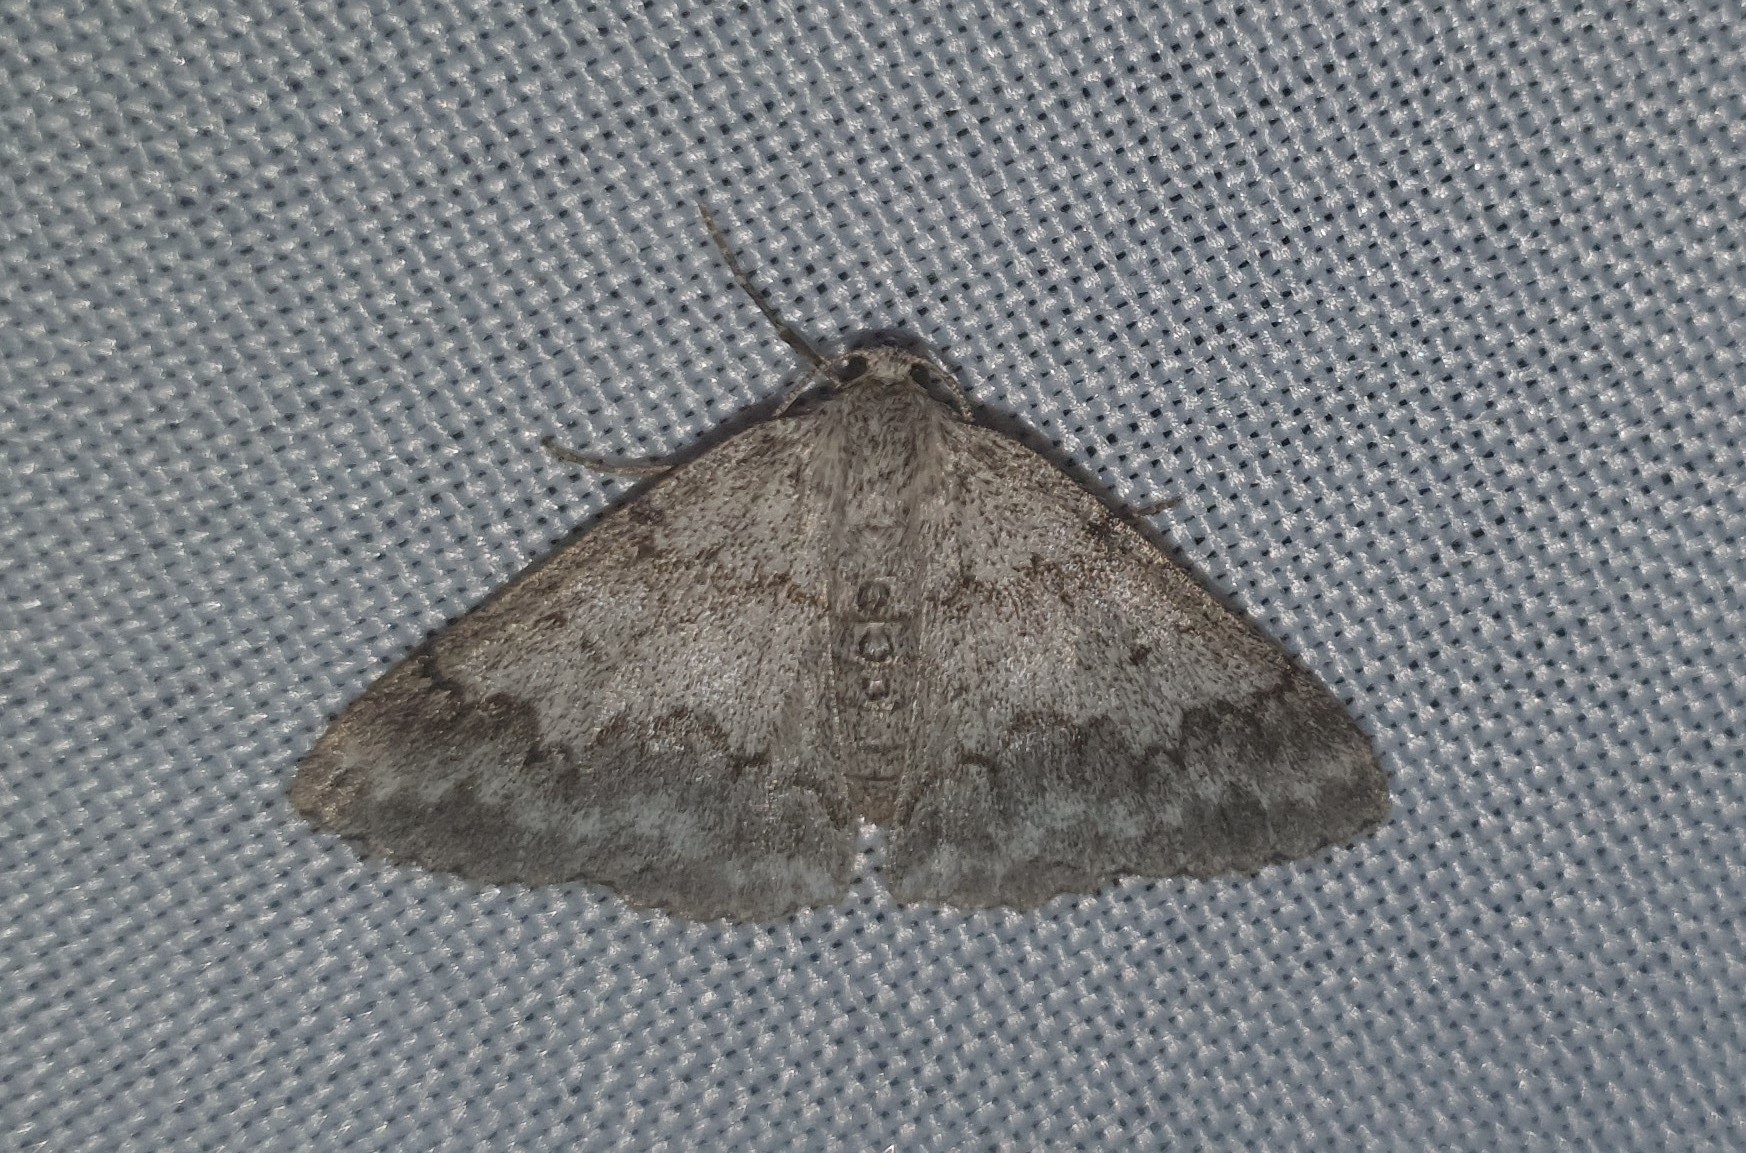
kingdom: Animalia
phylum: Arthropoda
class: Insecta
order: Lepidoptera
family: Geometridae
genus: Pseudoterpna
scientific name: Pseudoterpna coronillaria
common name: Jersey emerald
